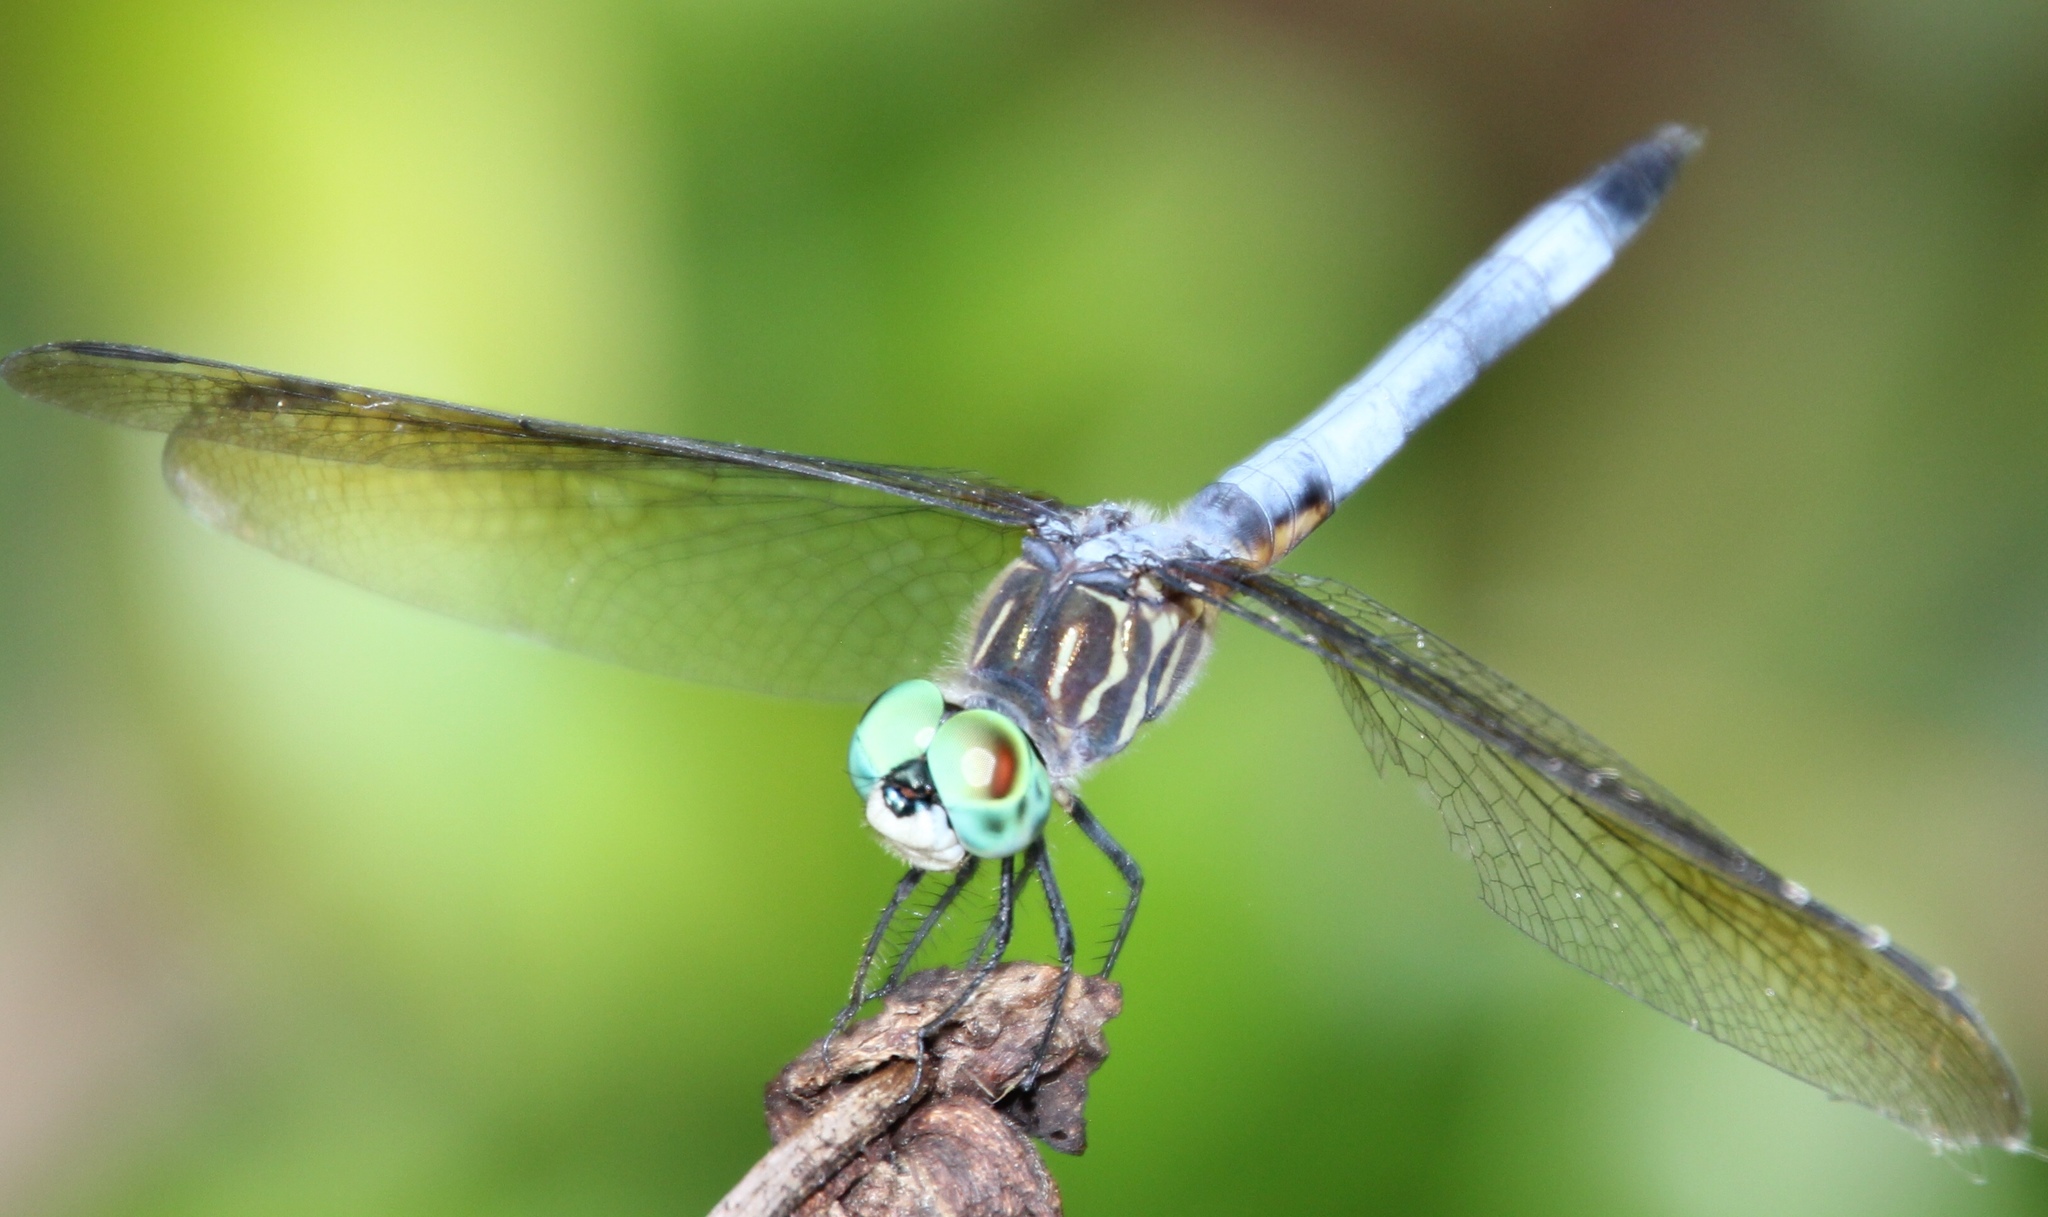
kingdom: Animalia
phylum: Arthropoda
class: Insecta
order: Odonata
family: Libellulidae
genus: Pachydiplax
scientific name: Pachydiplax longipennis
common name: Blue dasher
